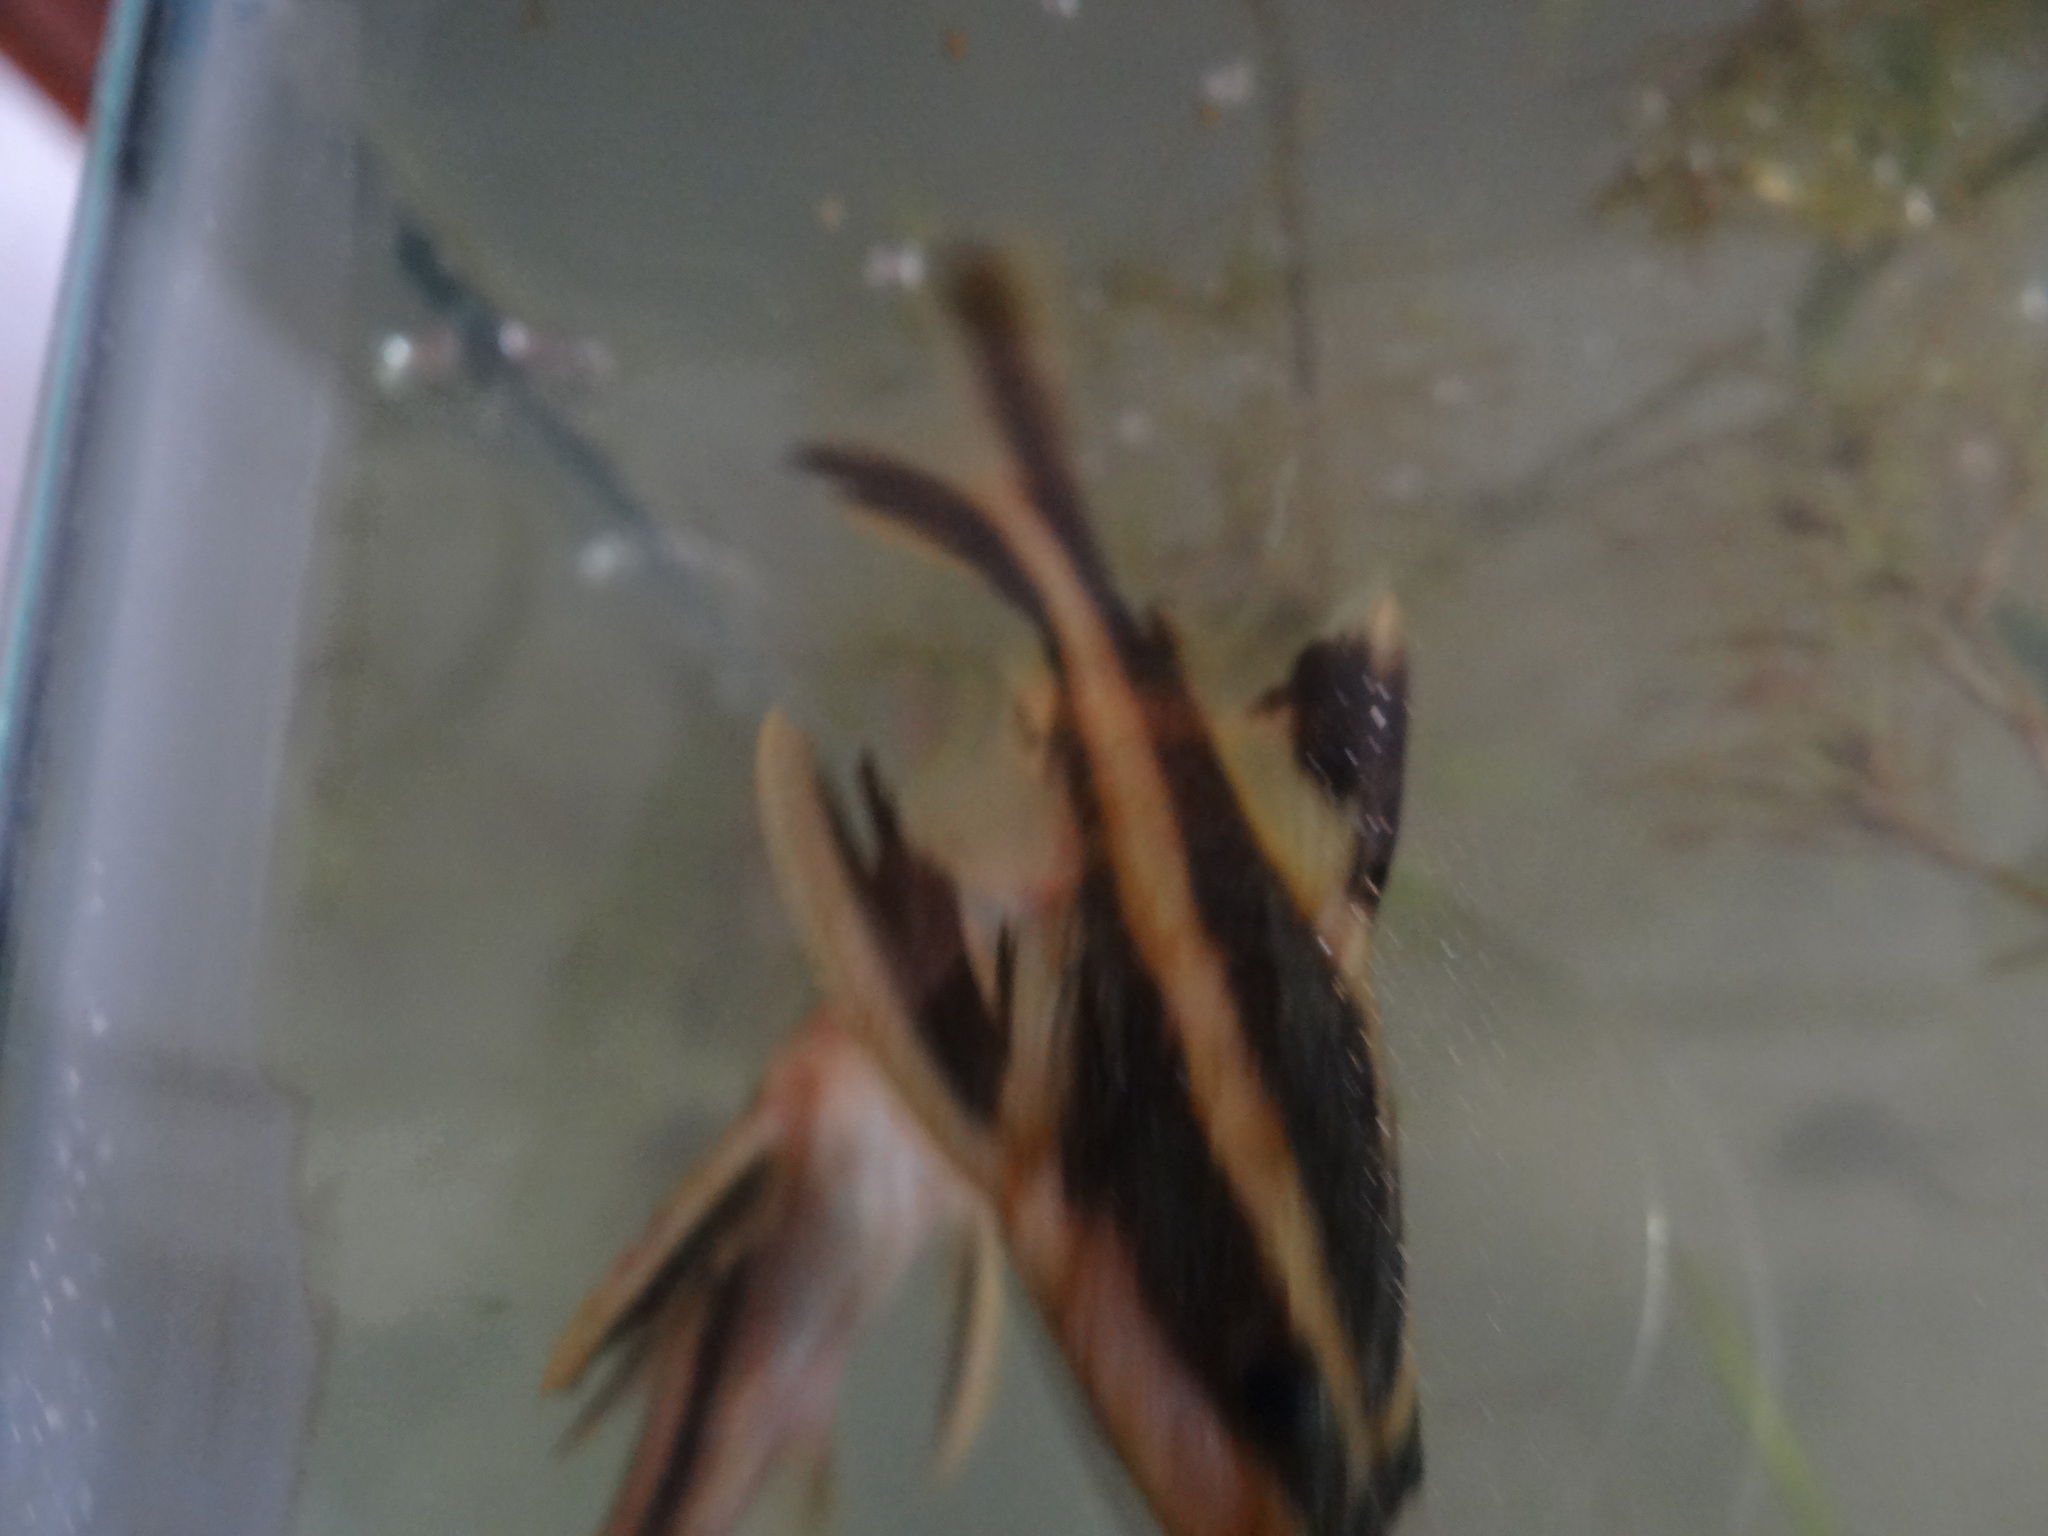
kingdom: Animalia
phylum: Chordata
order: Siluriformes
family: Doradidae
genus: Platydoras
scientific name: Platydoras armatulus
